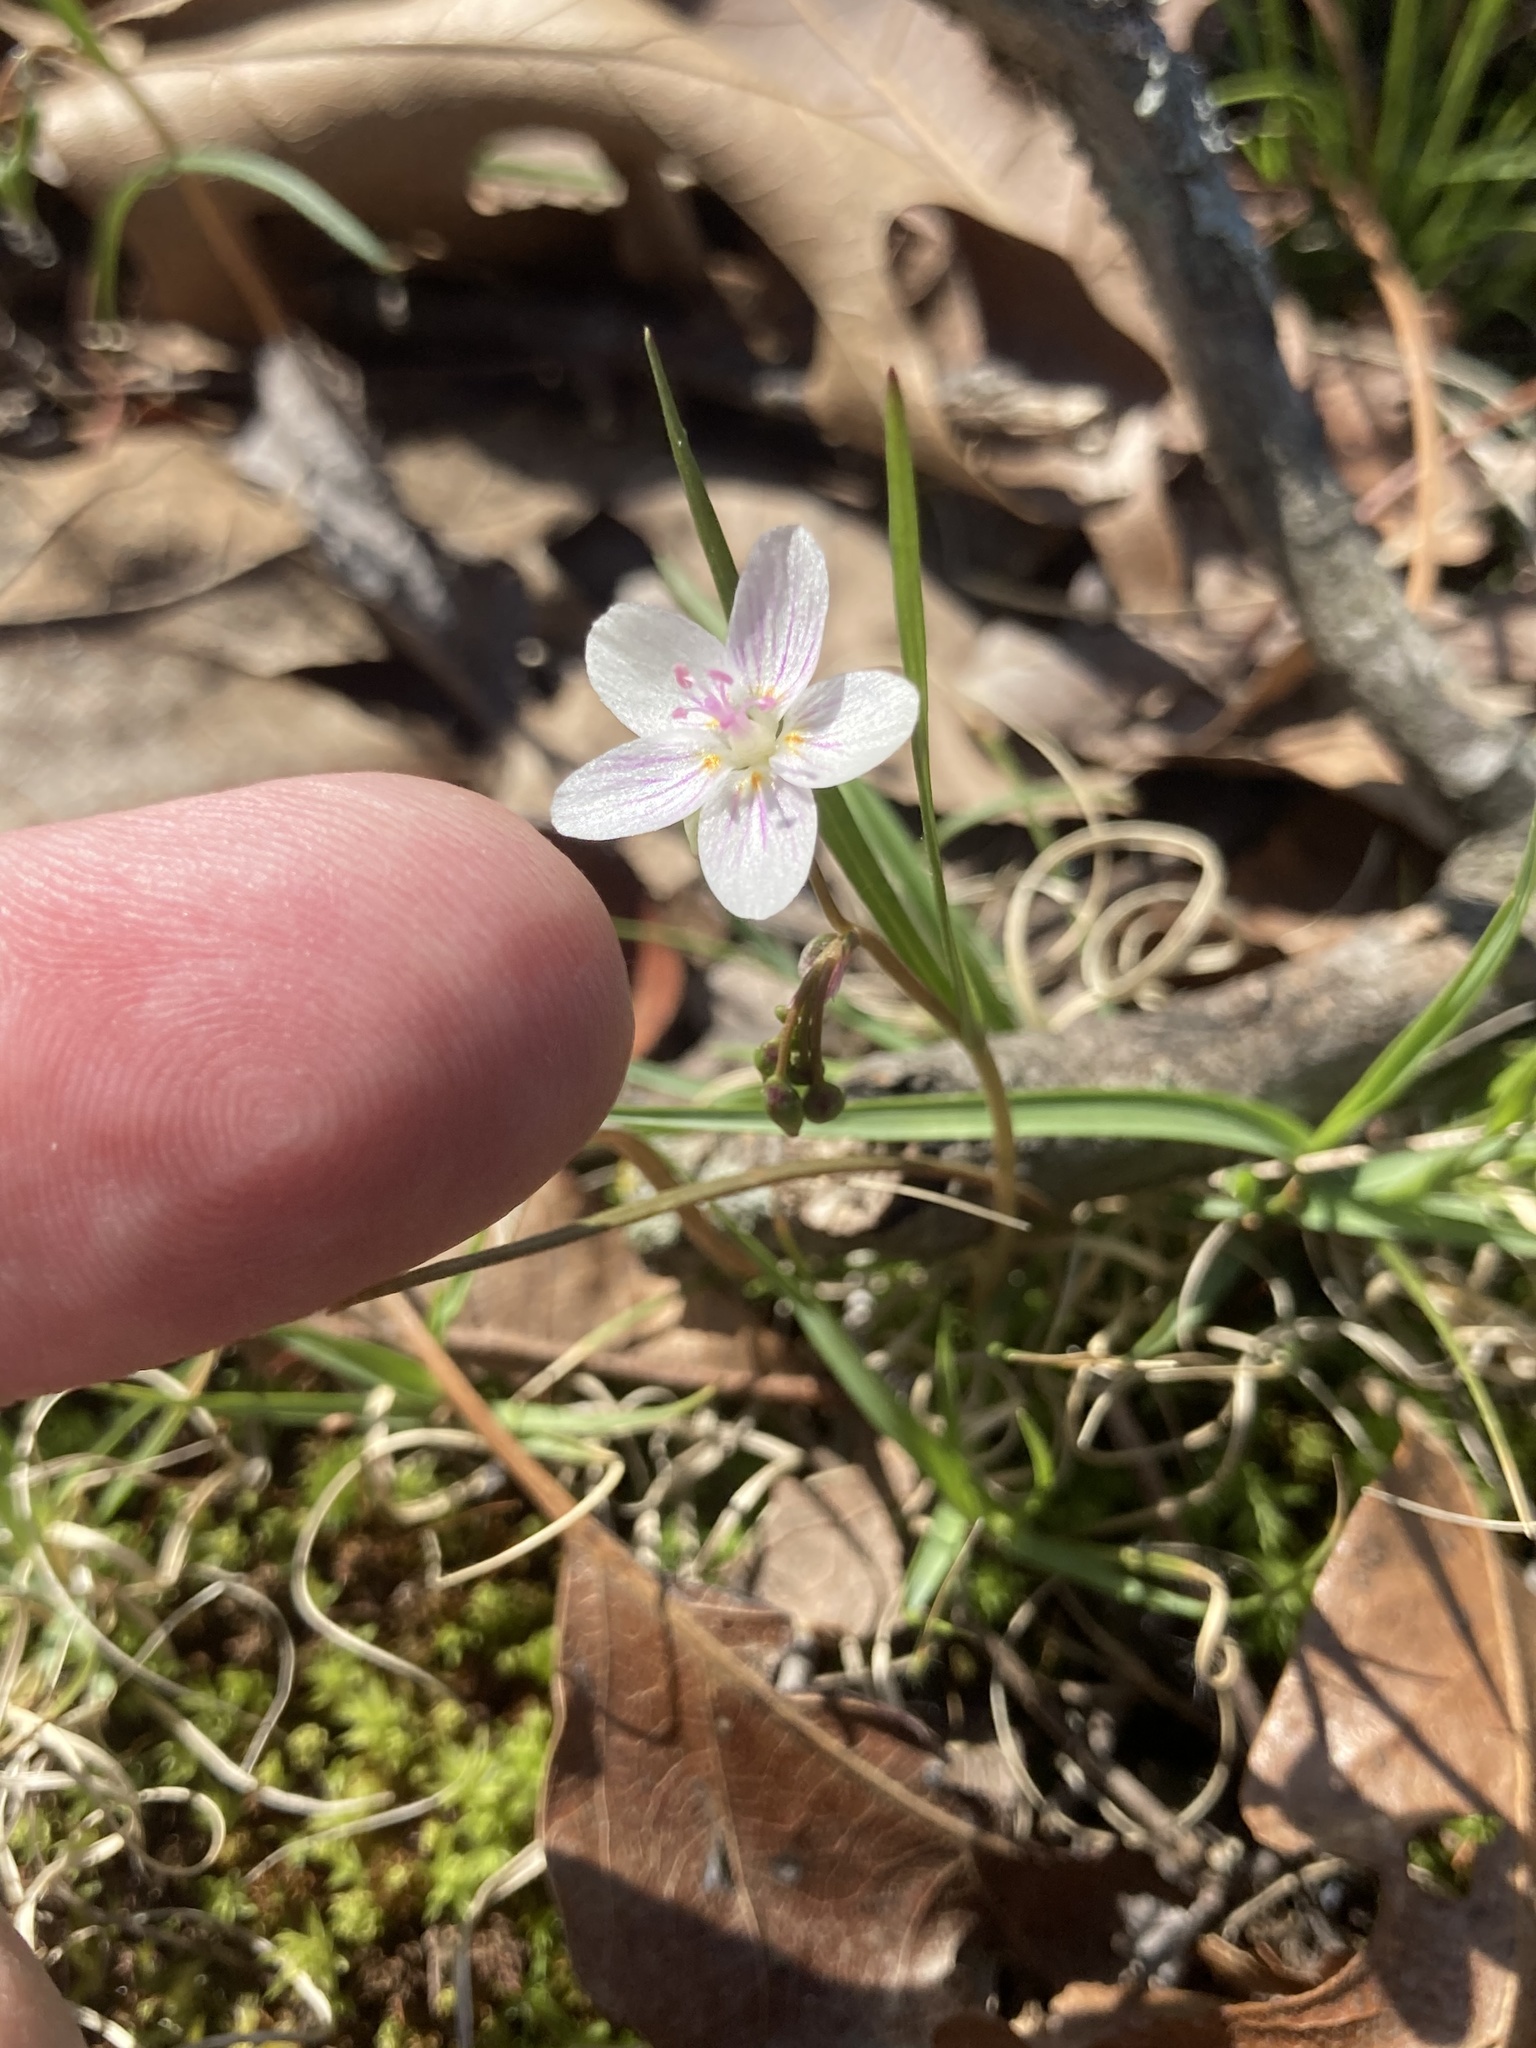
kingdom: Plantae
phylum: Tracheophyta
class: Magnoliopsida
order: Caryophyllales
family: Montiaceae
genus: Claytonia
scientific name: Claytonia virginica
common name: Virginia springbeauty
